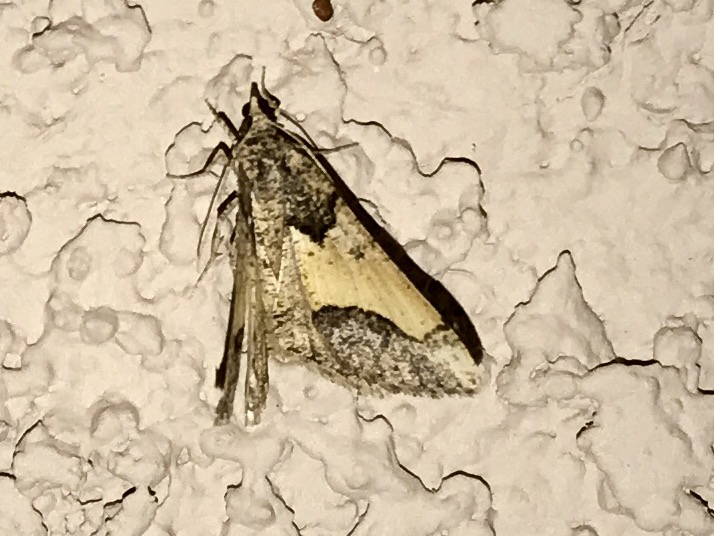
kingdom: Animalia
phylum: Arthropoda
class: Insecta
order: Lepidoptera
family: Geometridae
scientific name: Geometridae
